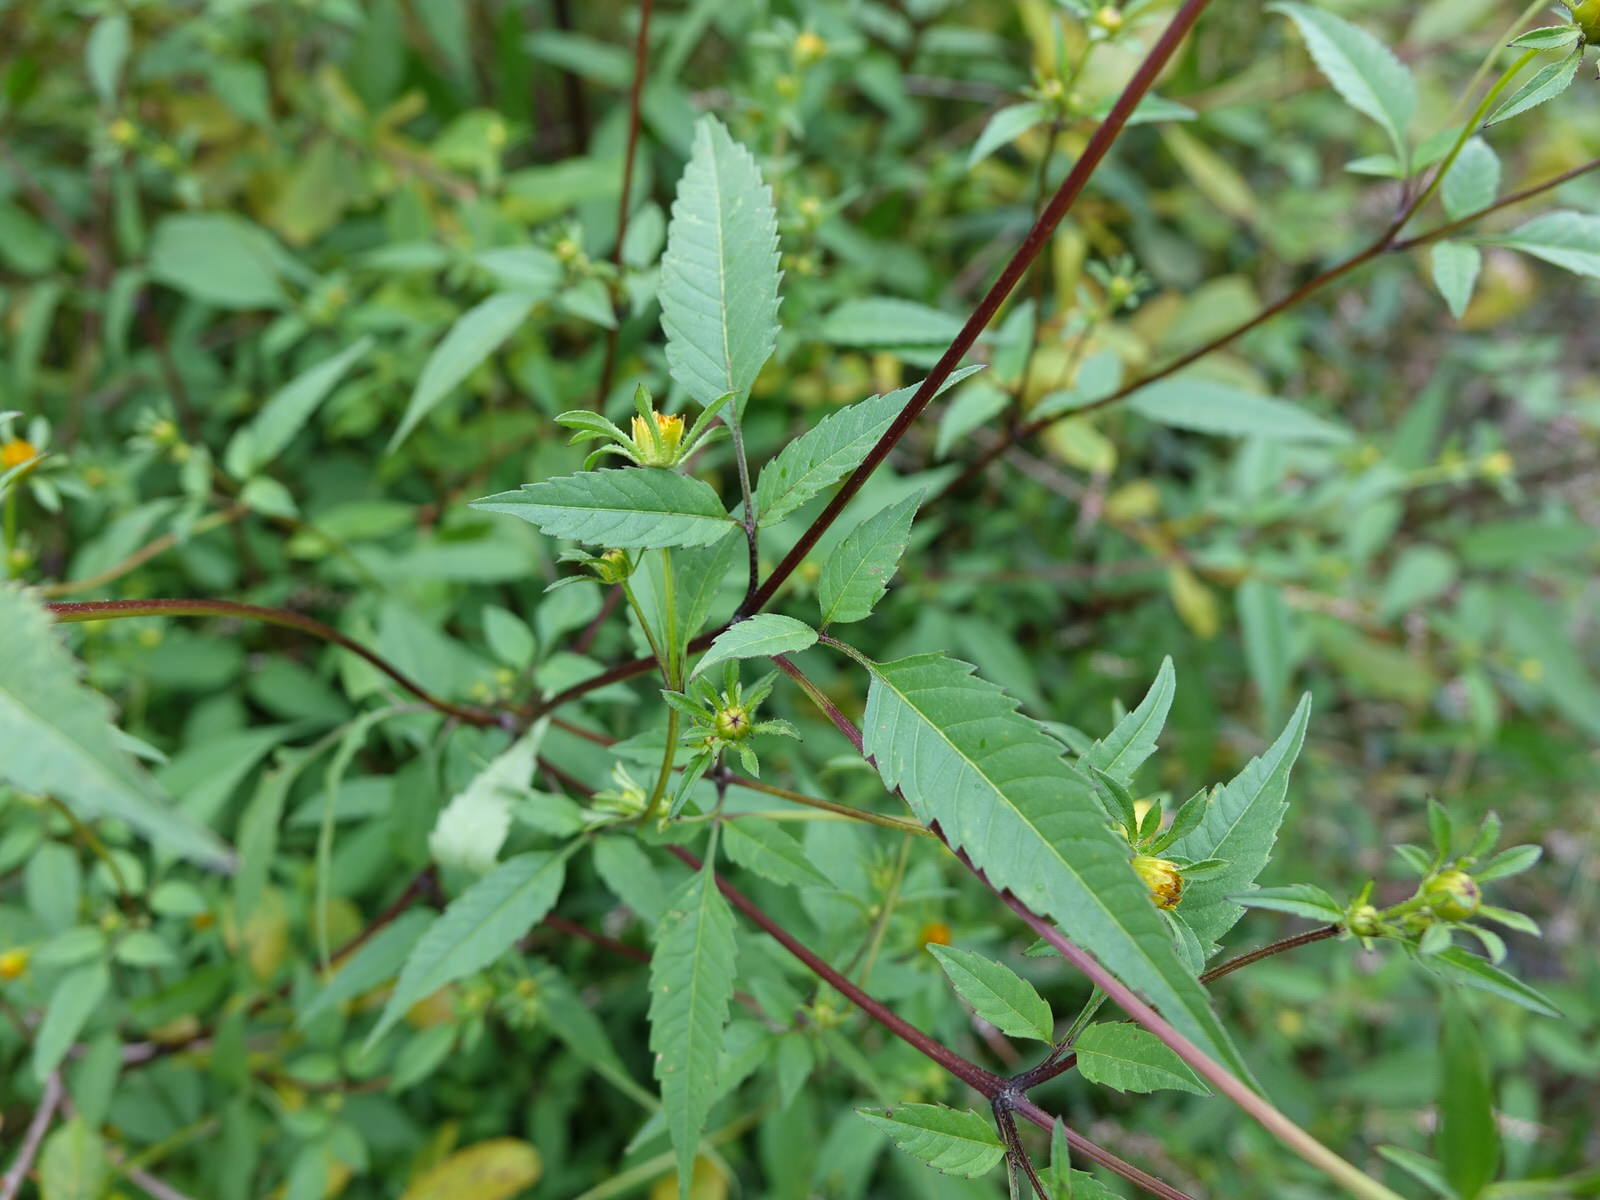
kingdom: Plantae
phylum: Tracheophyta
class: Magnoliopsida
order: Asterales
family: Asteraceae
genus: Bidens
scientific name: Bidens frondosa
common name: Beggarticks
